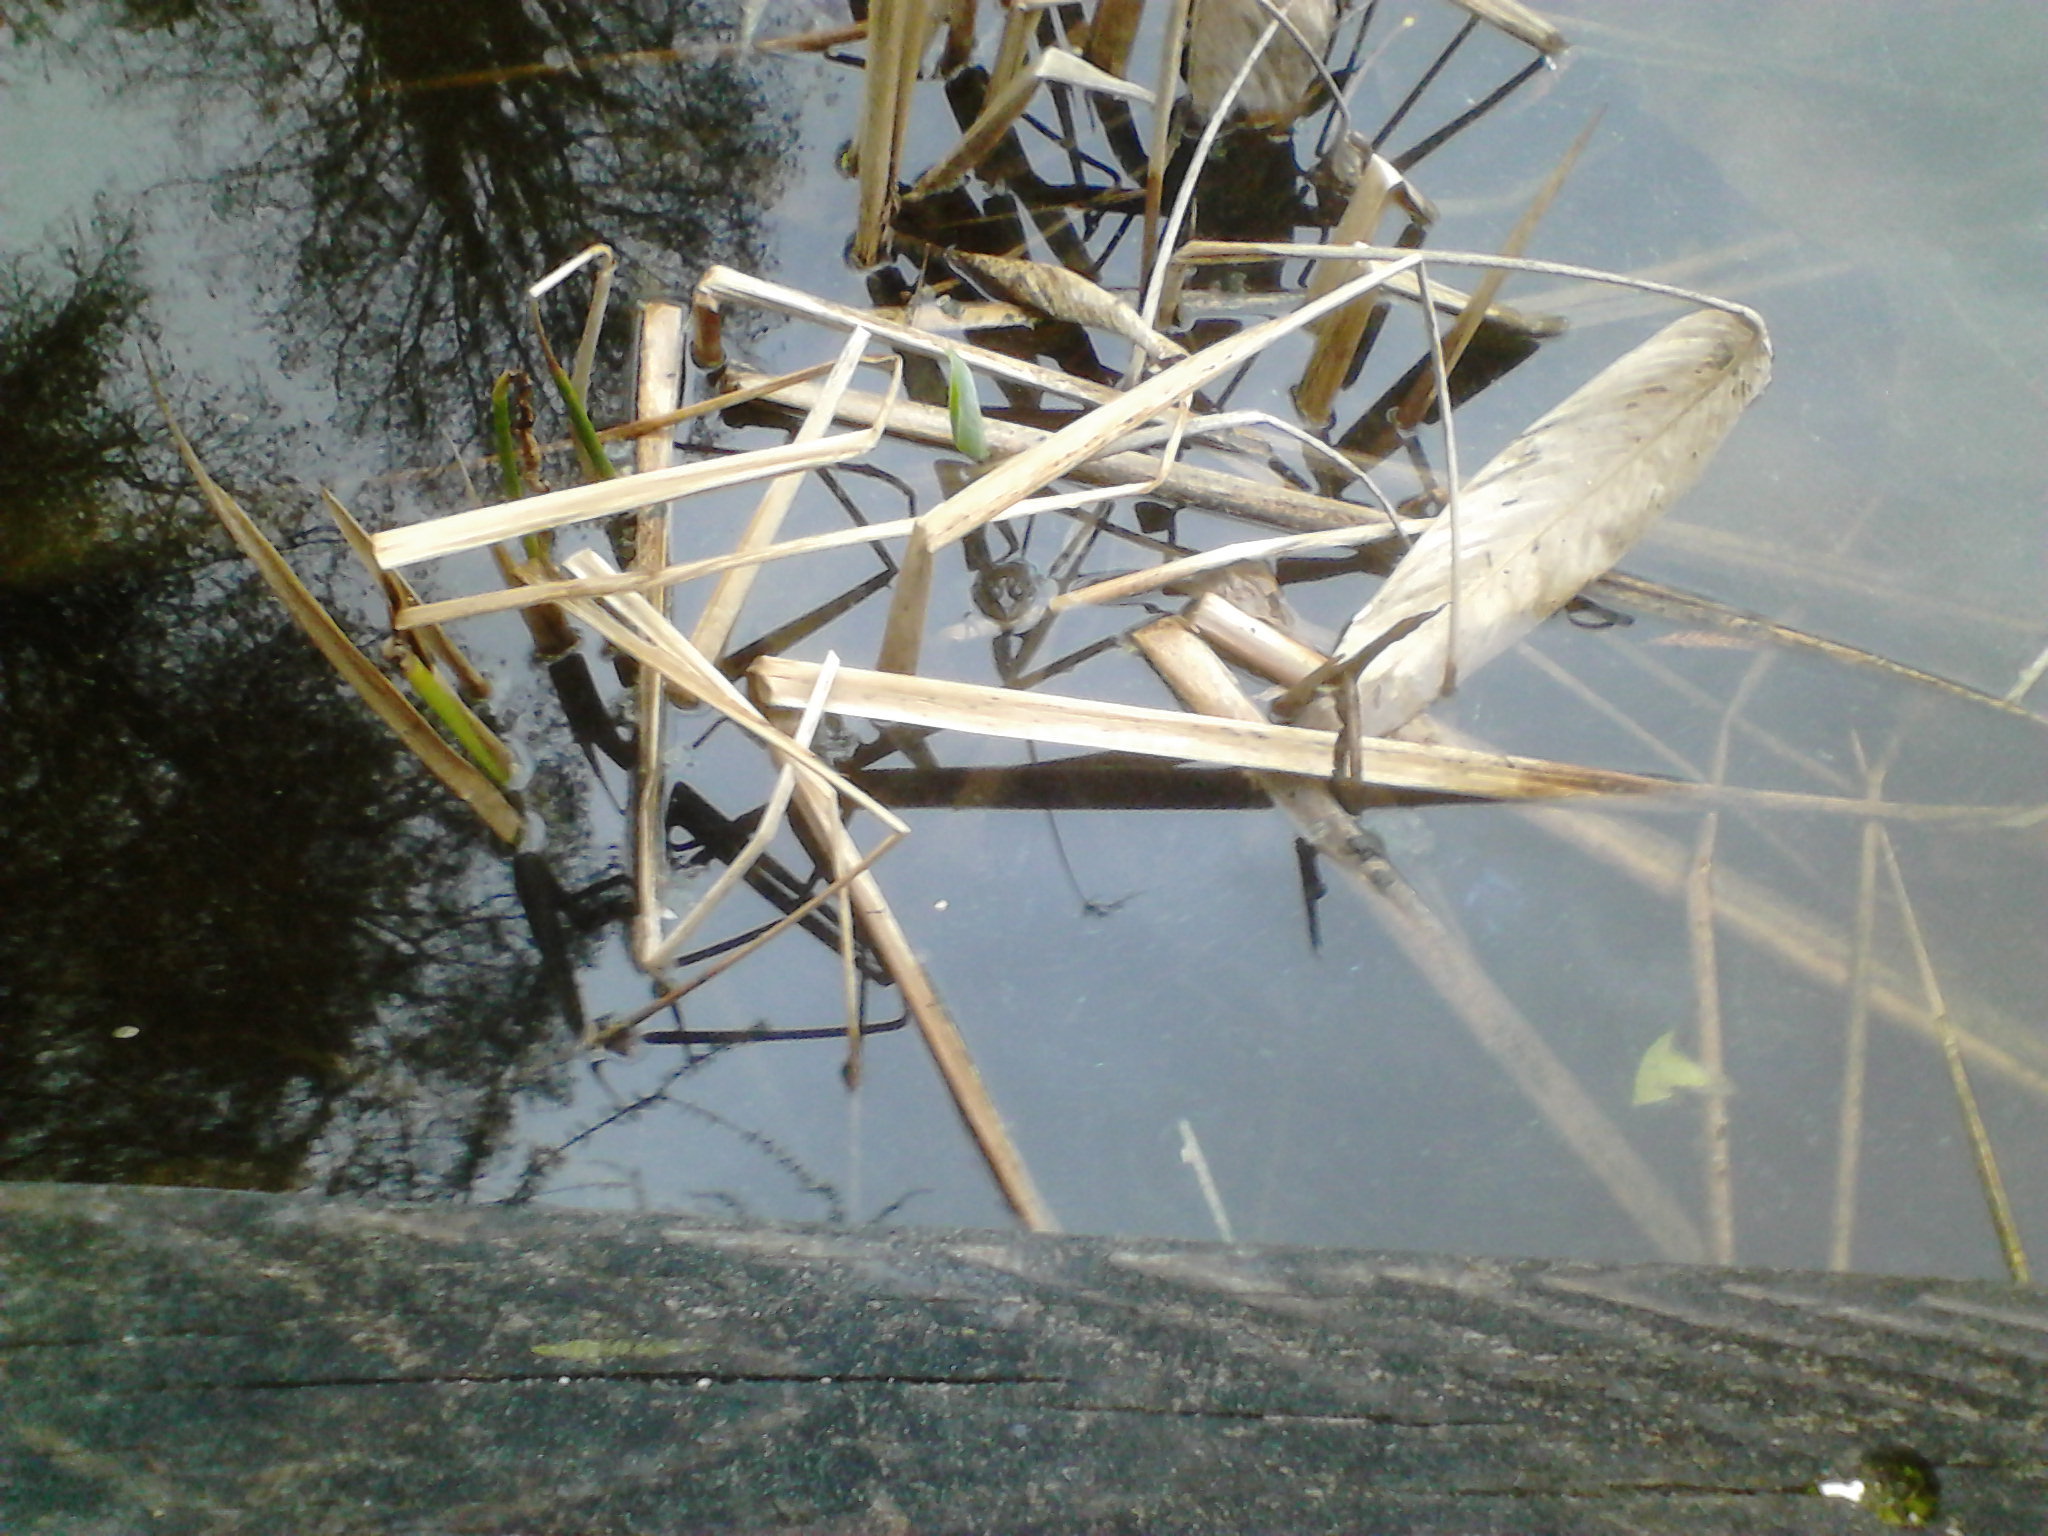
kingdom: Animalia
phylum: Chordata
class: Amphibia
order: Anura
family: Ranidae
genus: Pelophylax
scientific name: Pelophylax
